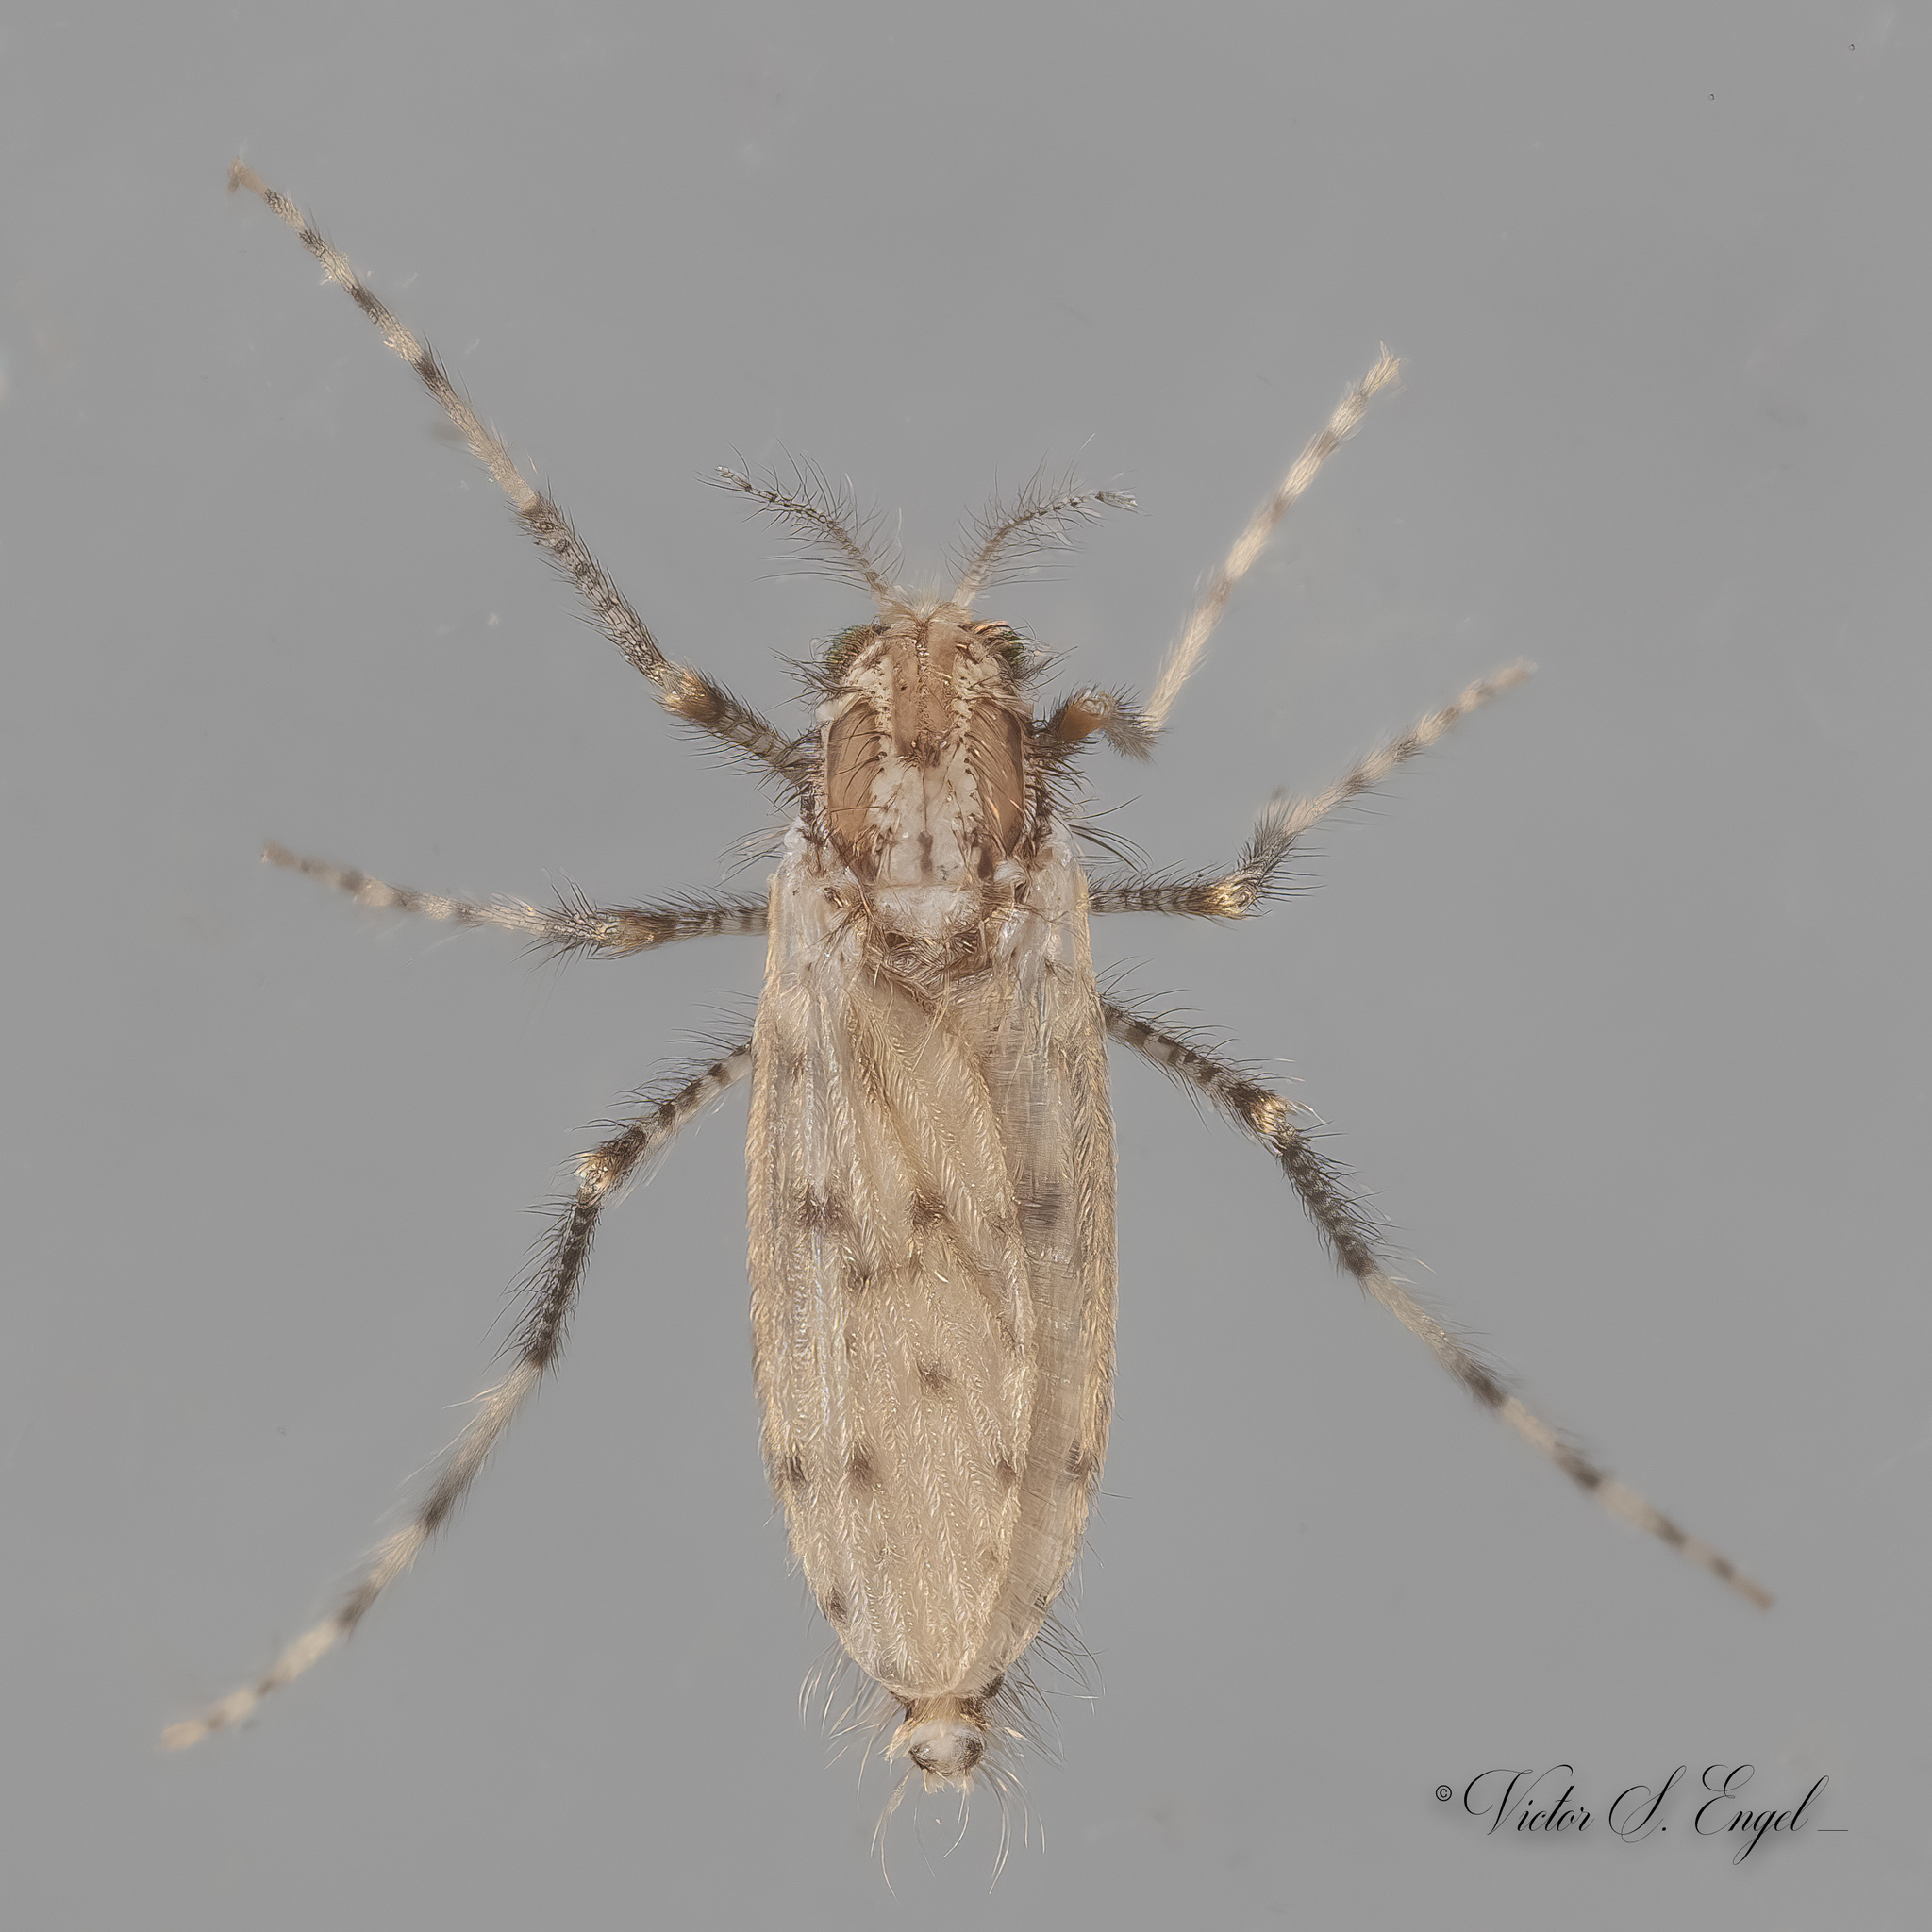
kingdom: Animalia
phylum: Arthropoda
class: Insecta
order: Diptera
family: Chaoboridae
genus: Chaoborus
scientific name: Chaoborus punctipennis
